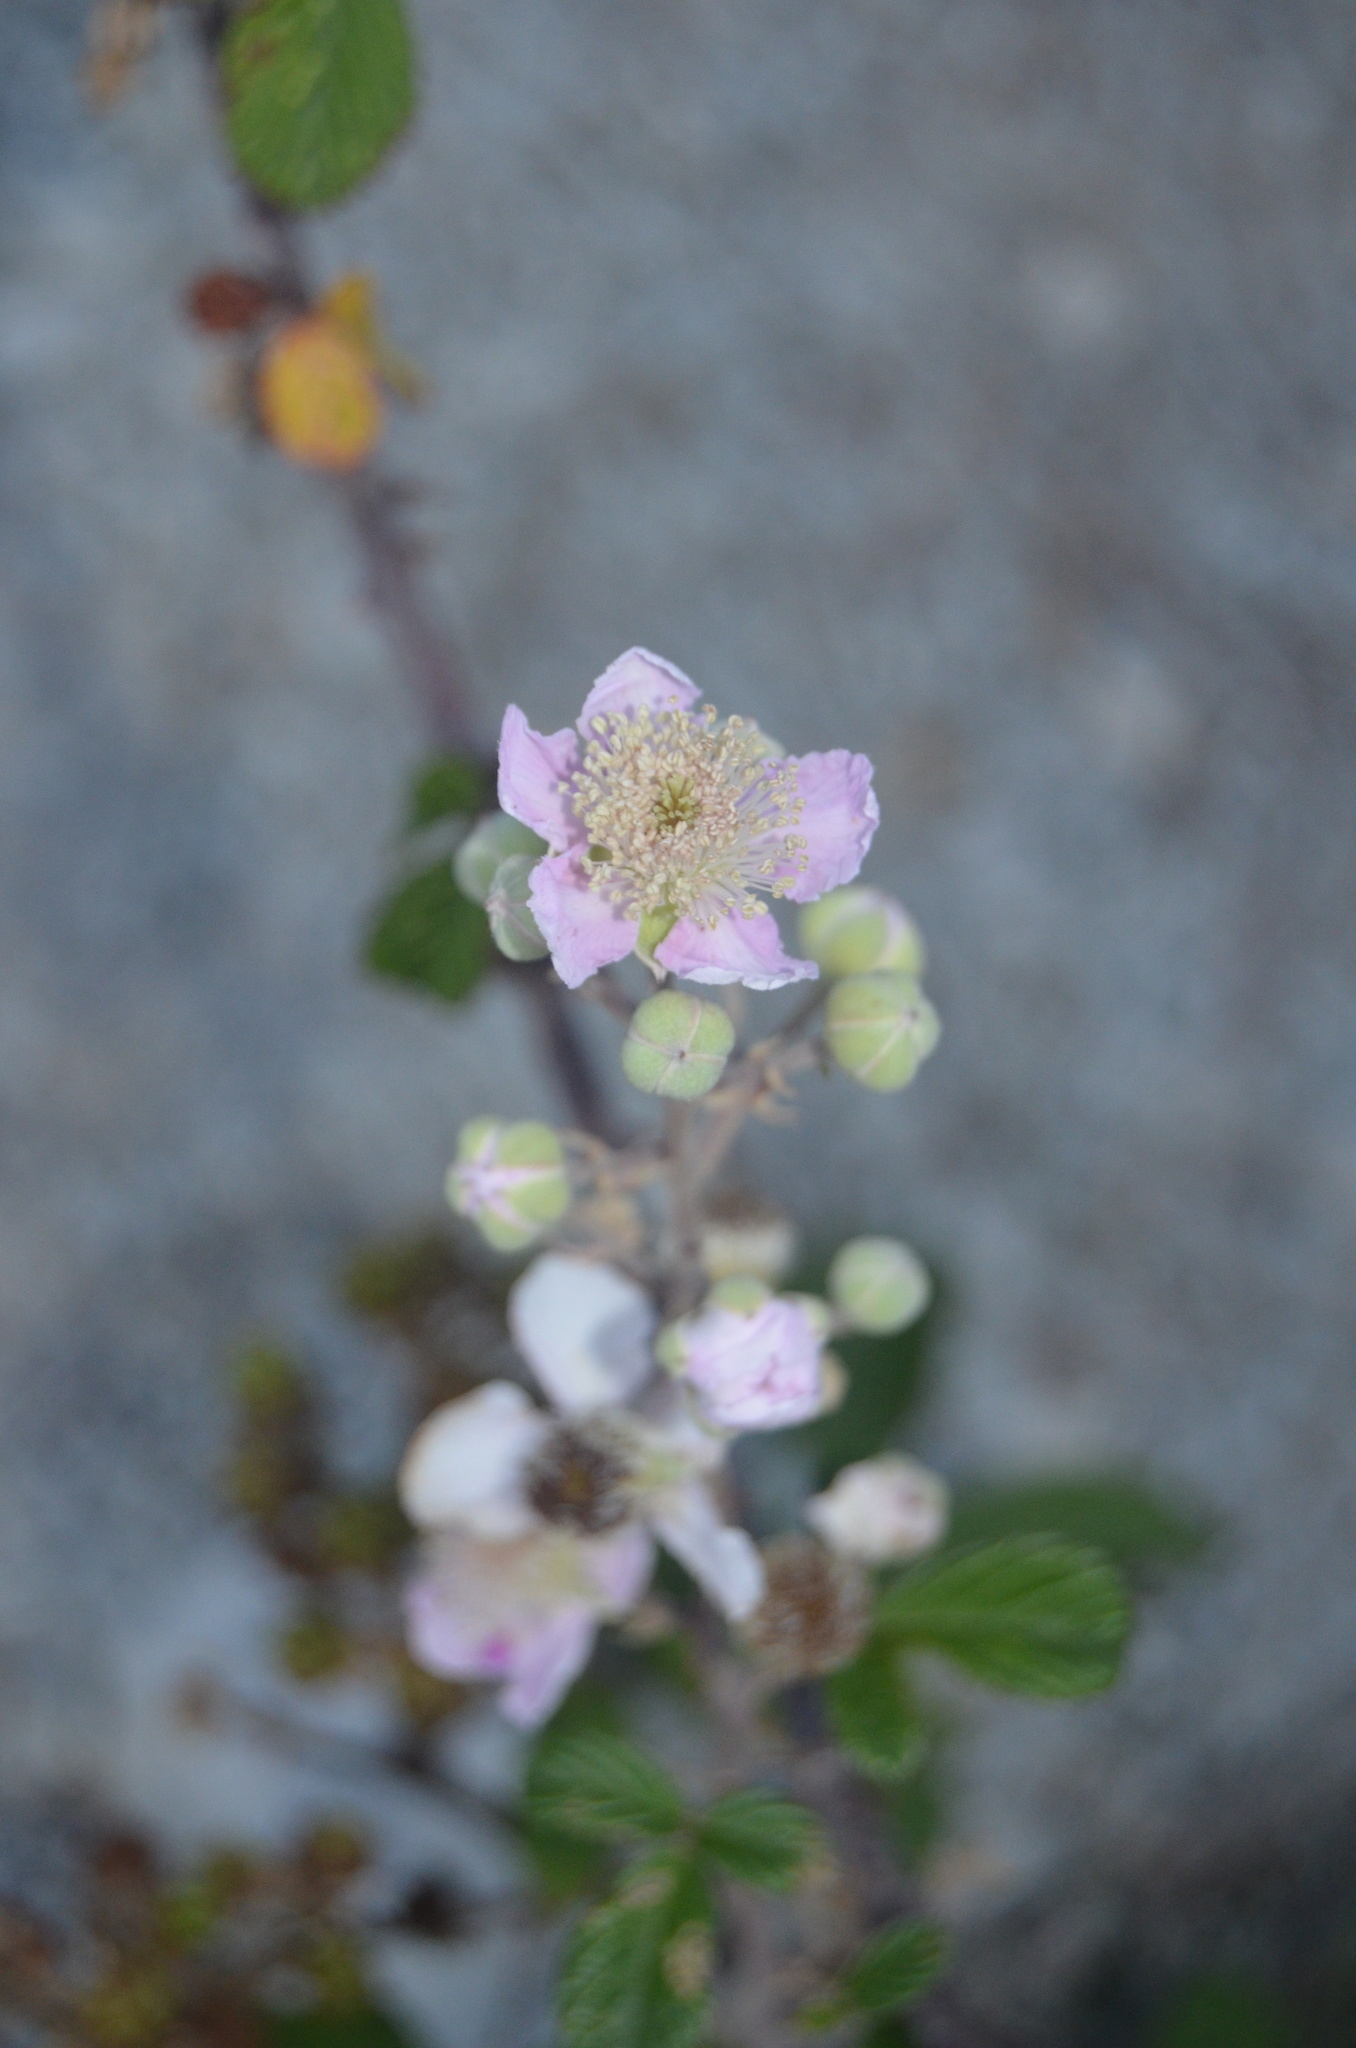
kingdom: Plantae
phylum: Tracheophyta
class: Magnoliopsida
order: Rosales
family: Rosaceae
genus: Rubus
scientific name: Rubus ulmifolius
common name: Elmleaf blackberry
